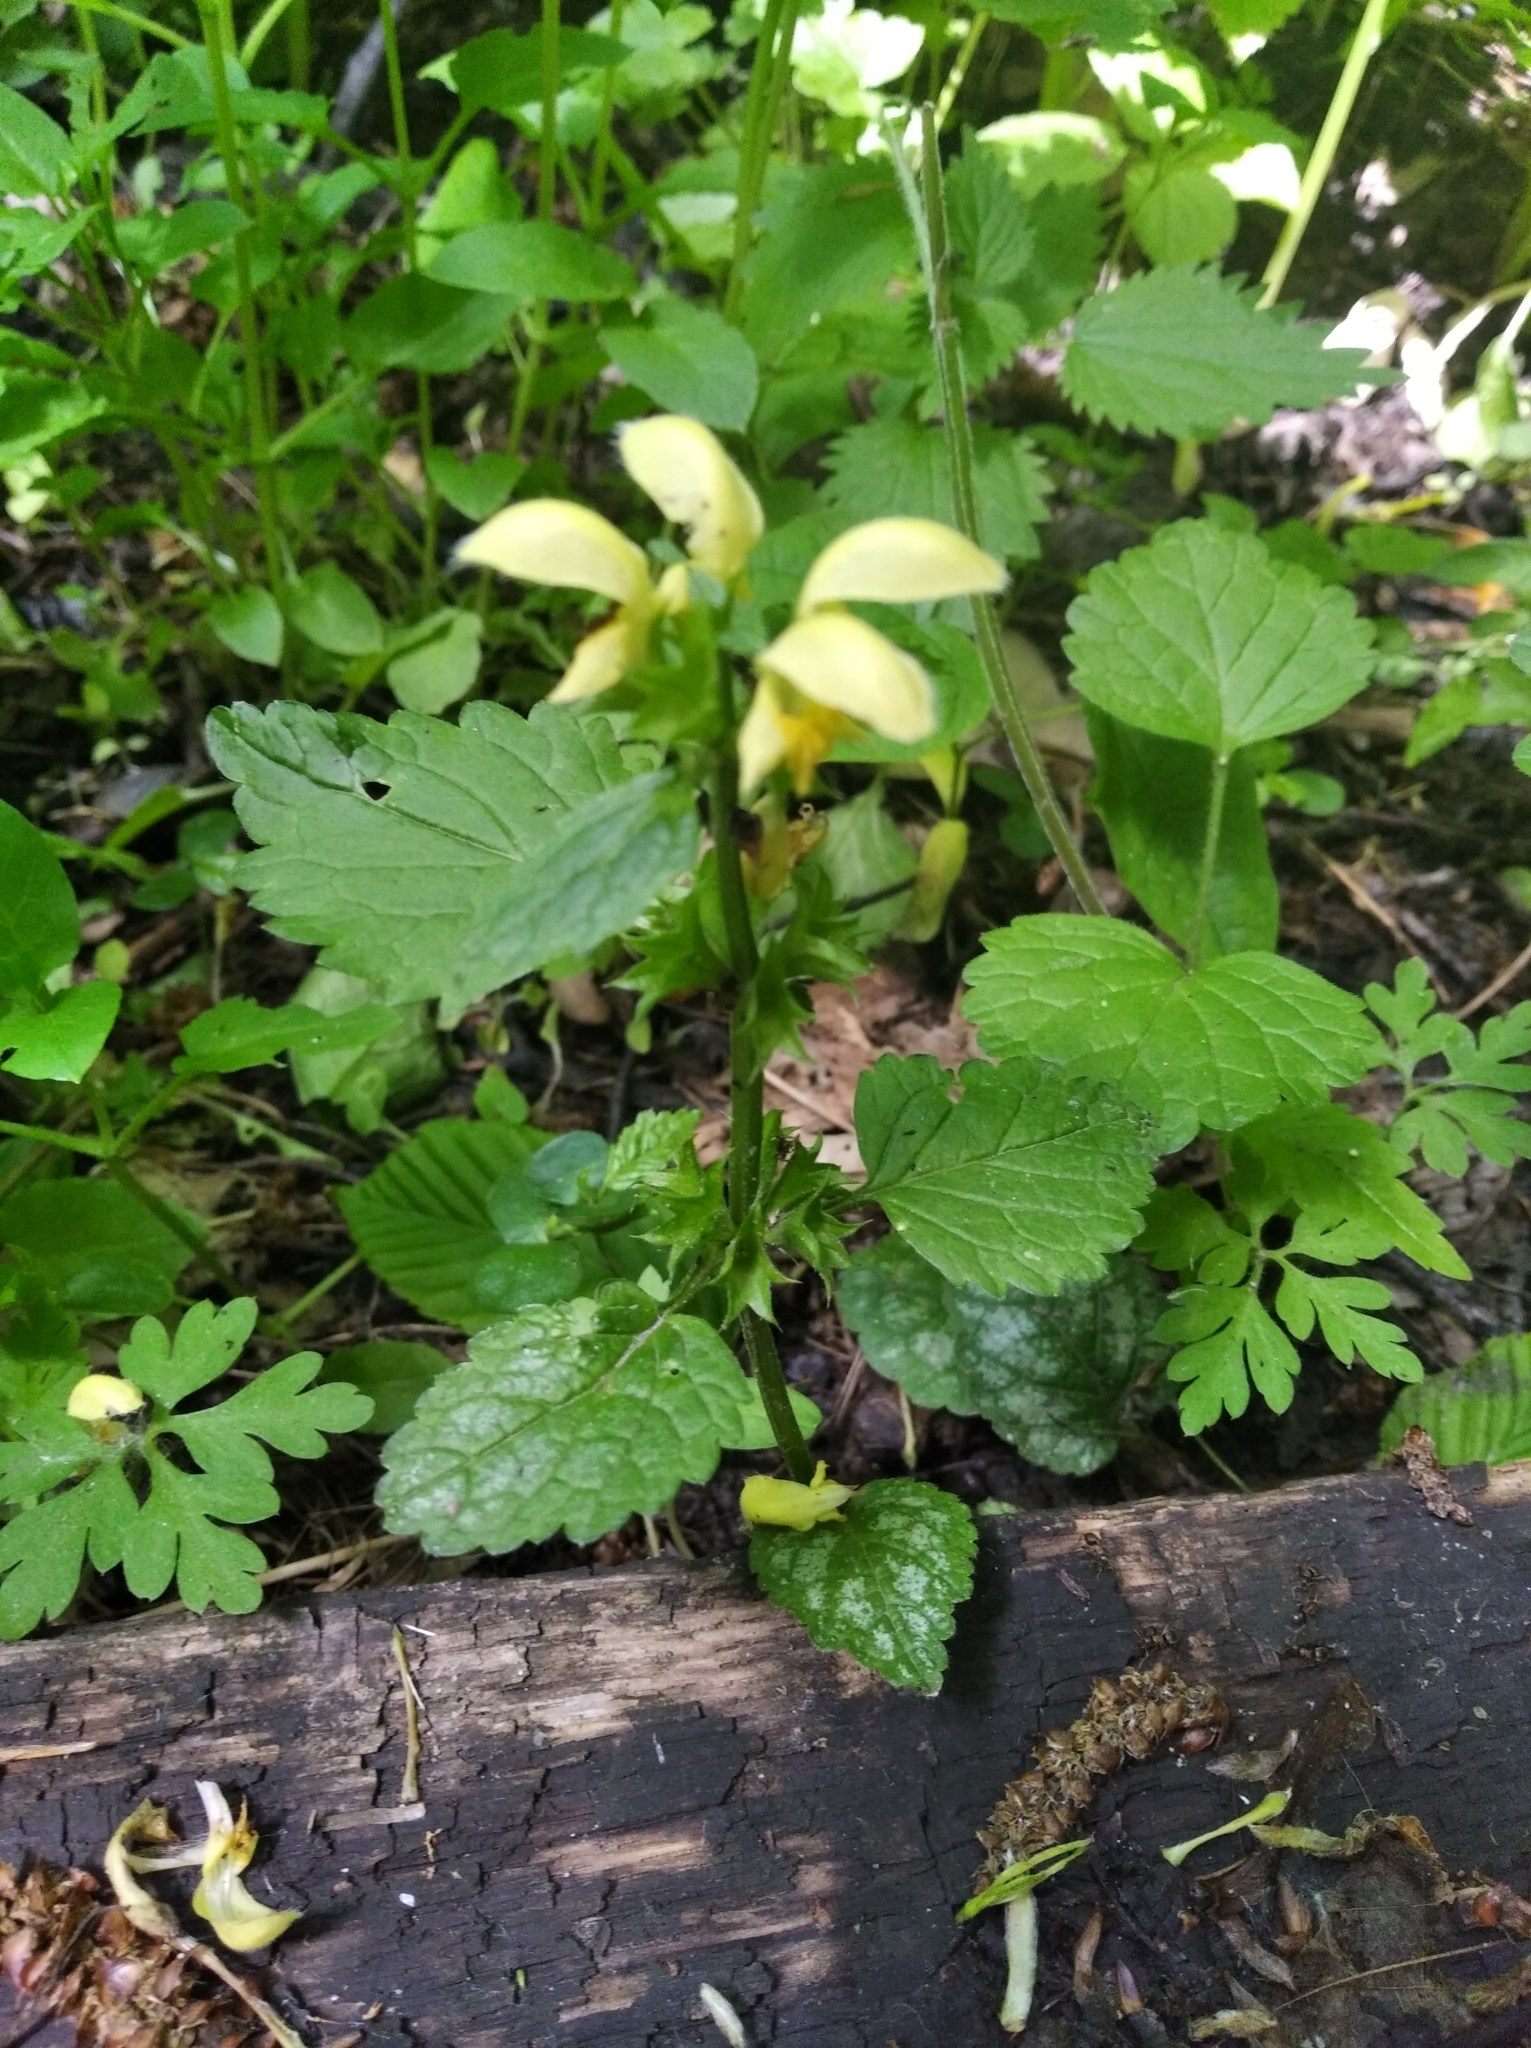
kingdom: Plantae
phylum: Tracheophyta
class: Magnoliopsida
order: Lamiales
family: Lamiaceae
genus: Lamium
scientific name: Lamium galeobdolon
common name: Yellow archangel
